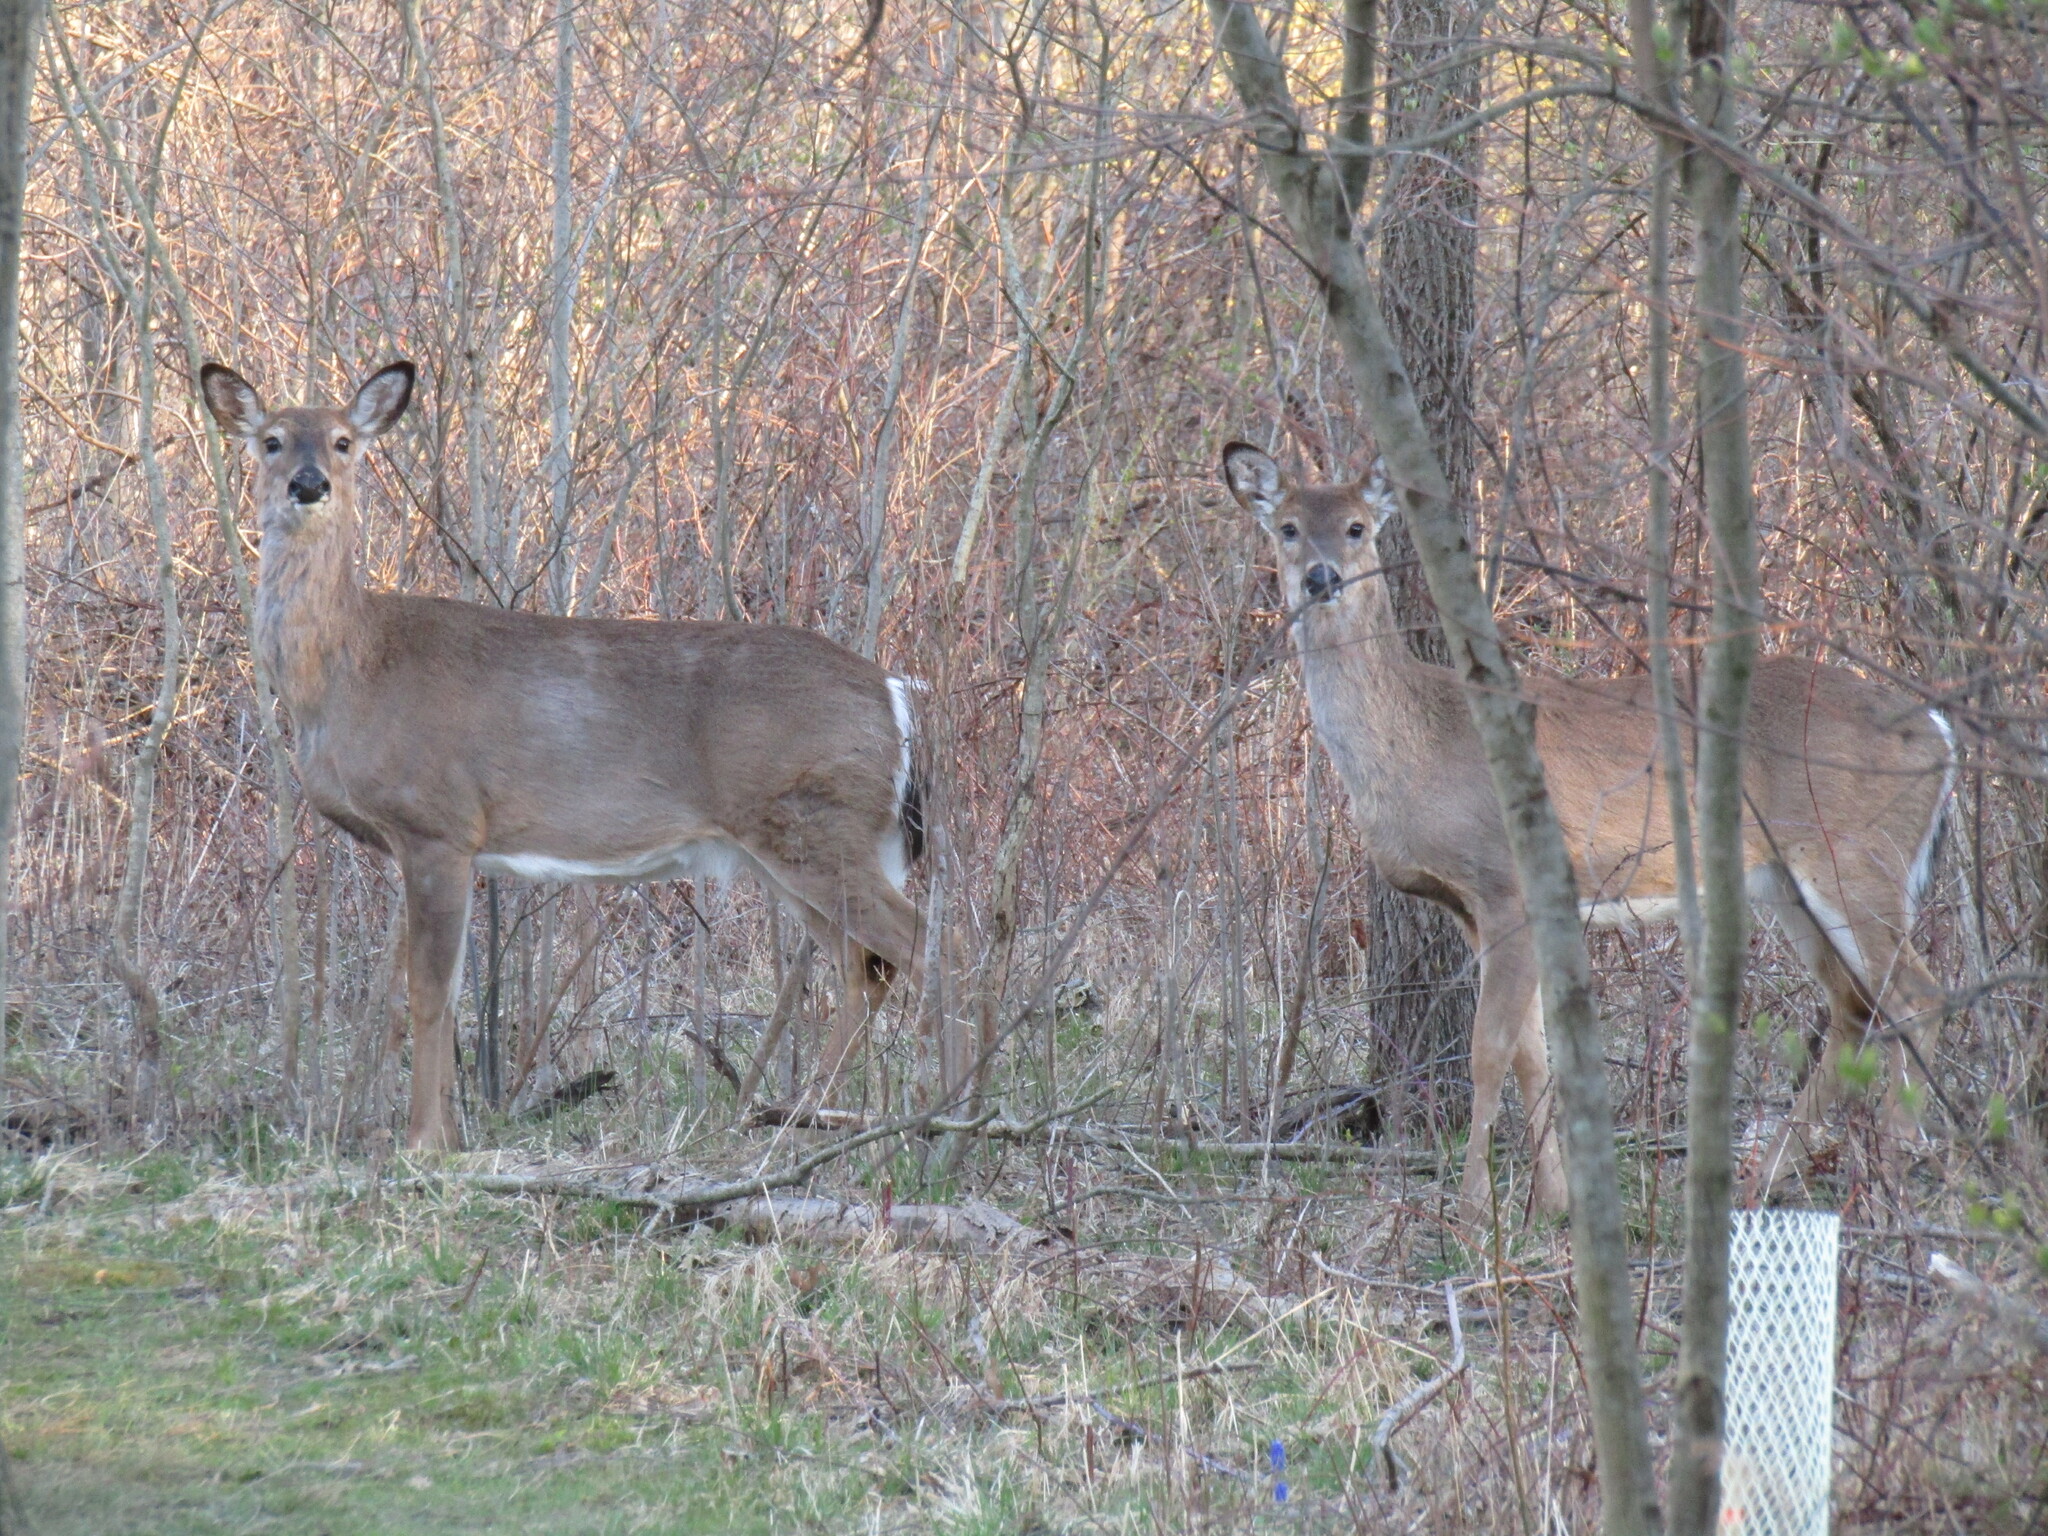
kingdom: Animalia
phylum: Chordata
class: Mammalia
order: Artiodactyla
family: Cervidae
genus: Odocoileus
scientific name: Odocoileus virginianus
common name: White-tailed deer
